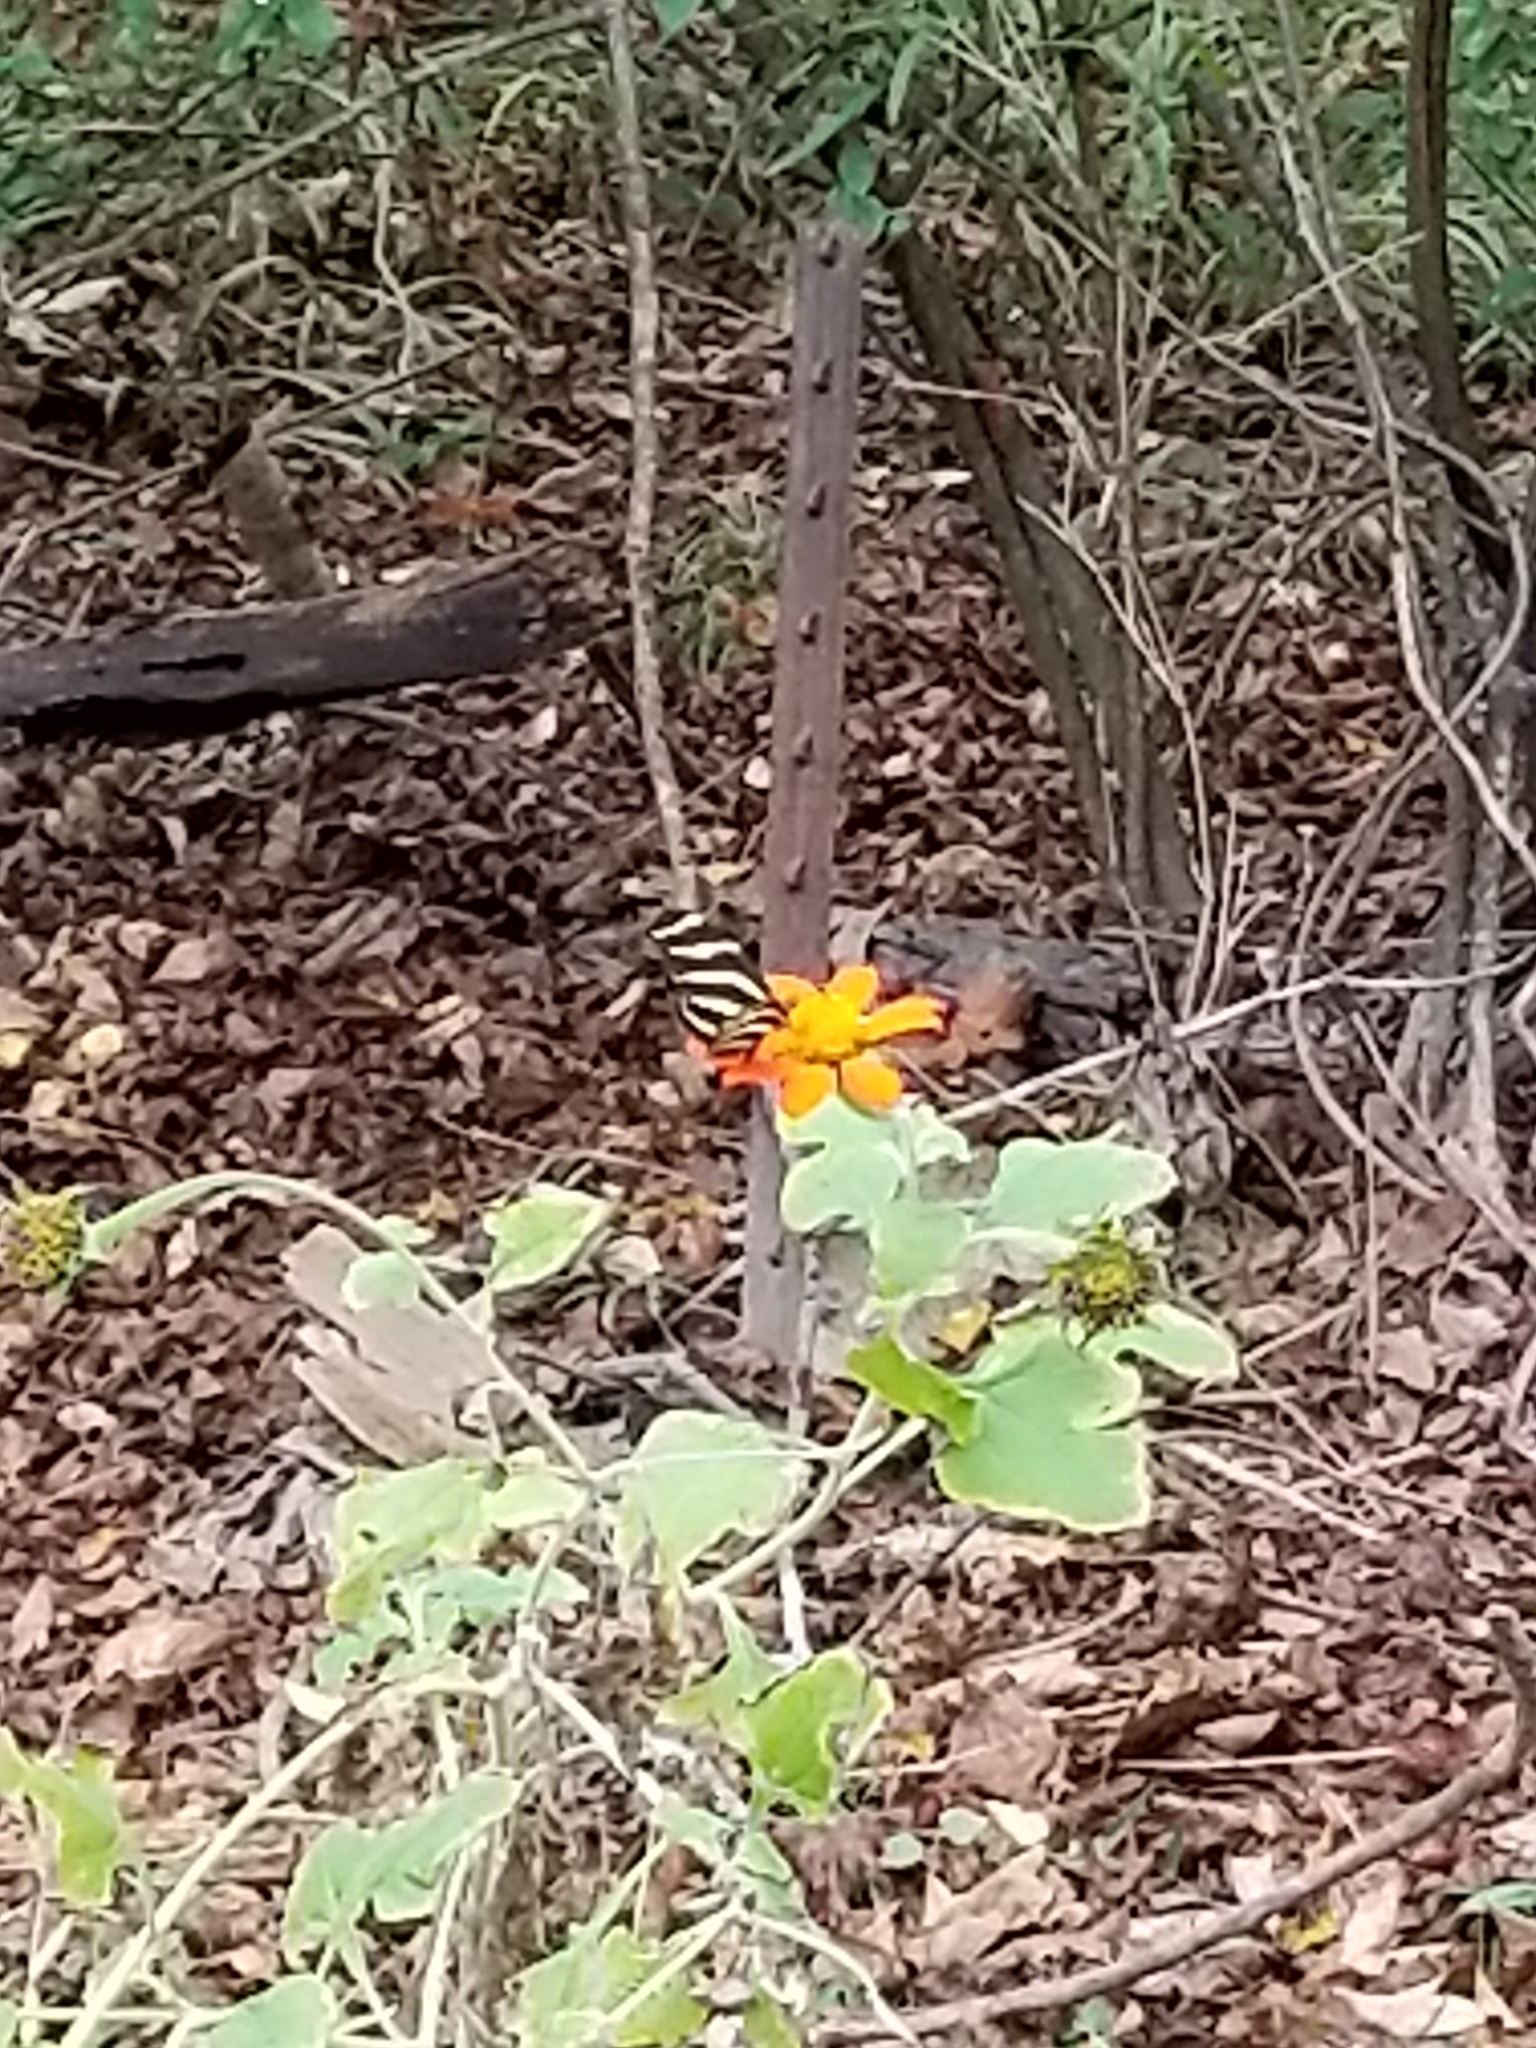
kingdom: Animalia
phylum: Arthropoda
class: Insecta
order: Lepidoptera
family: Nymphalidae
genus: Heliconius
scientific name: Heliconius charithonia
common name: Zebra long wing
